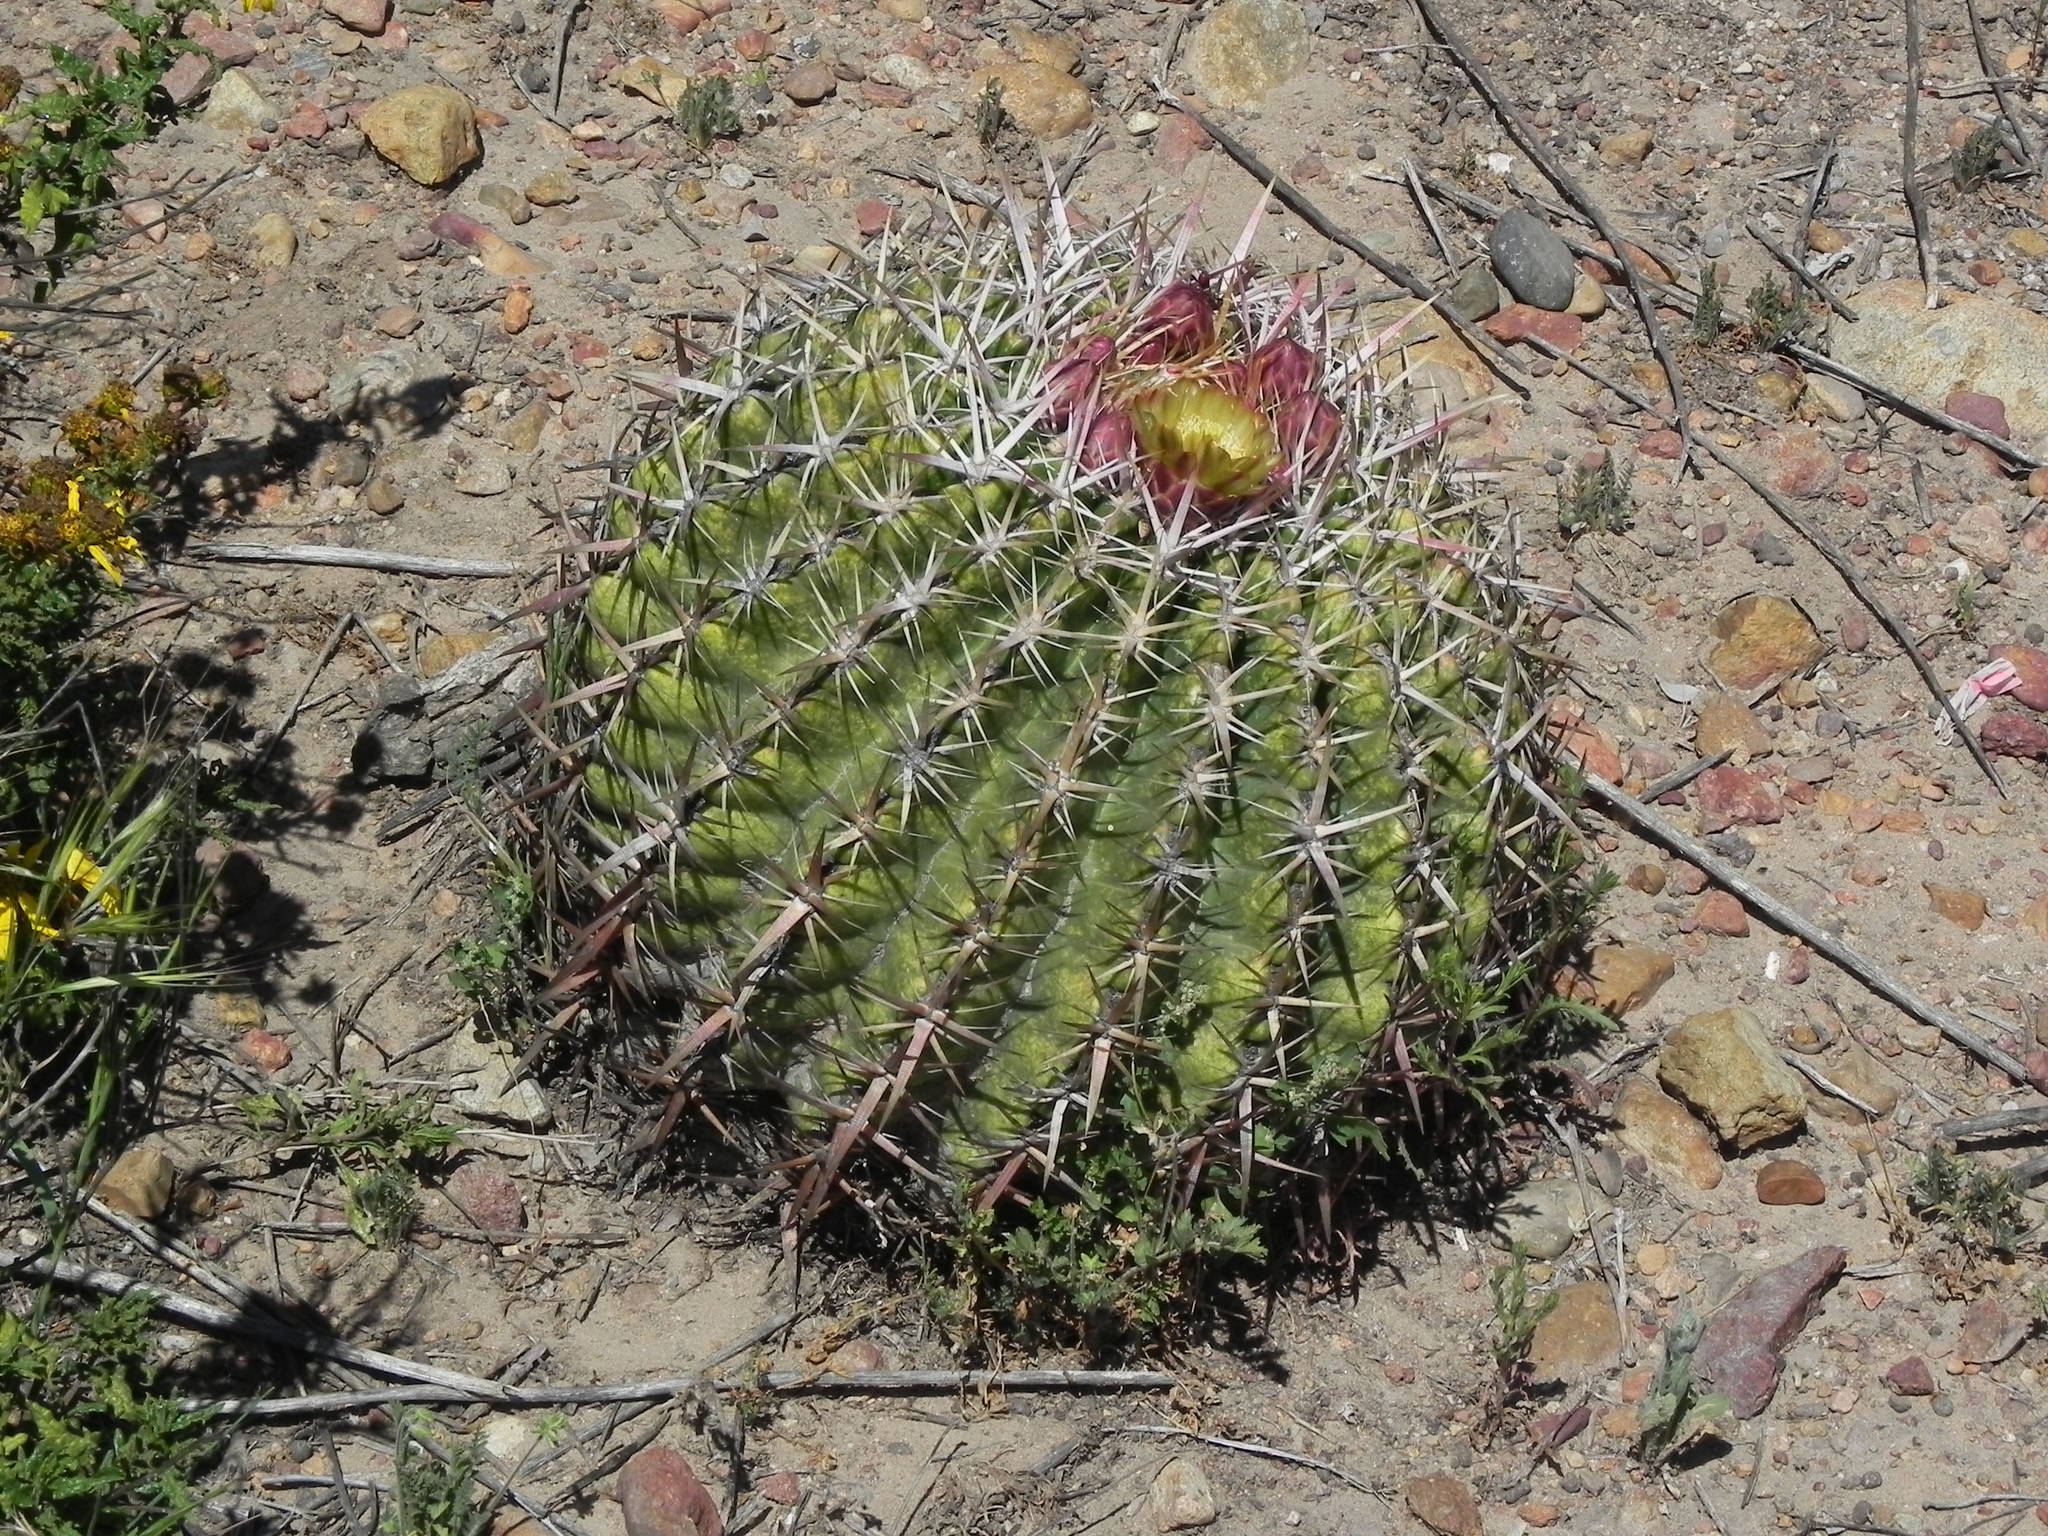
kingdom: Plantae
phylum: Tracheophyta
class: Magnoliopsida
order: Caryophyllales
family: Cactaceae
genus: Ferocactus
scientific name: Ferocactus viridescens
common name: San diego barrel cactus
